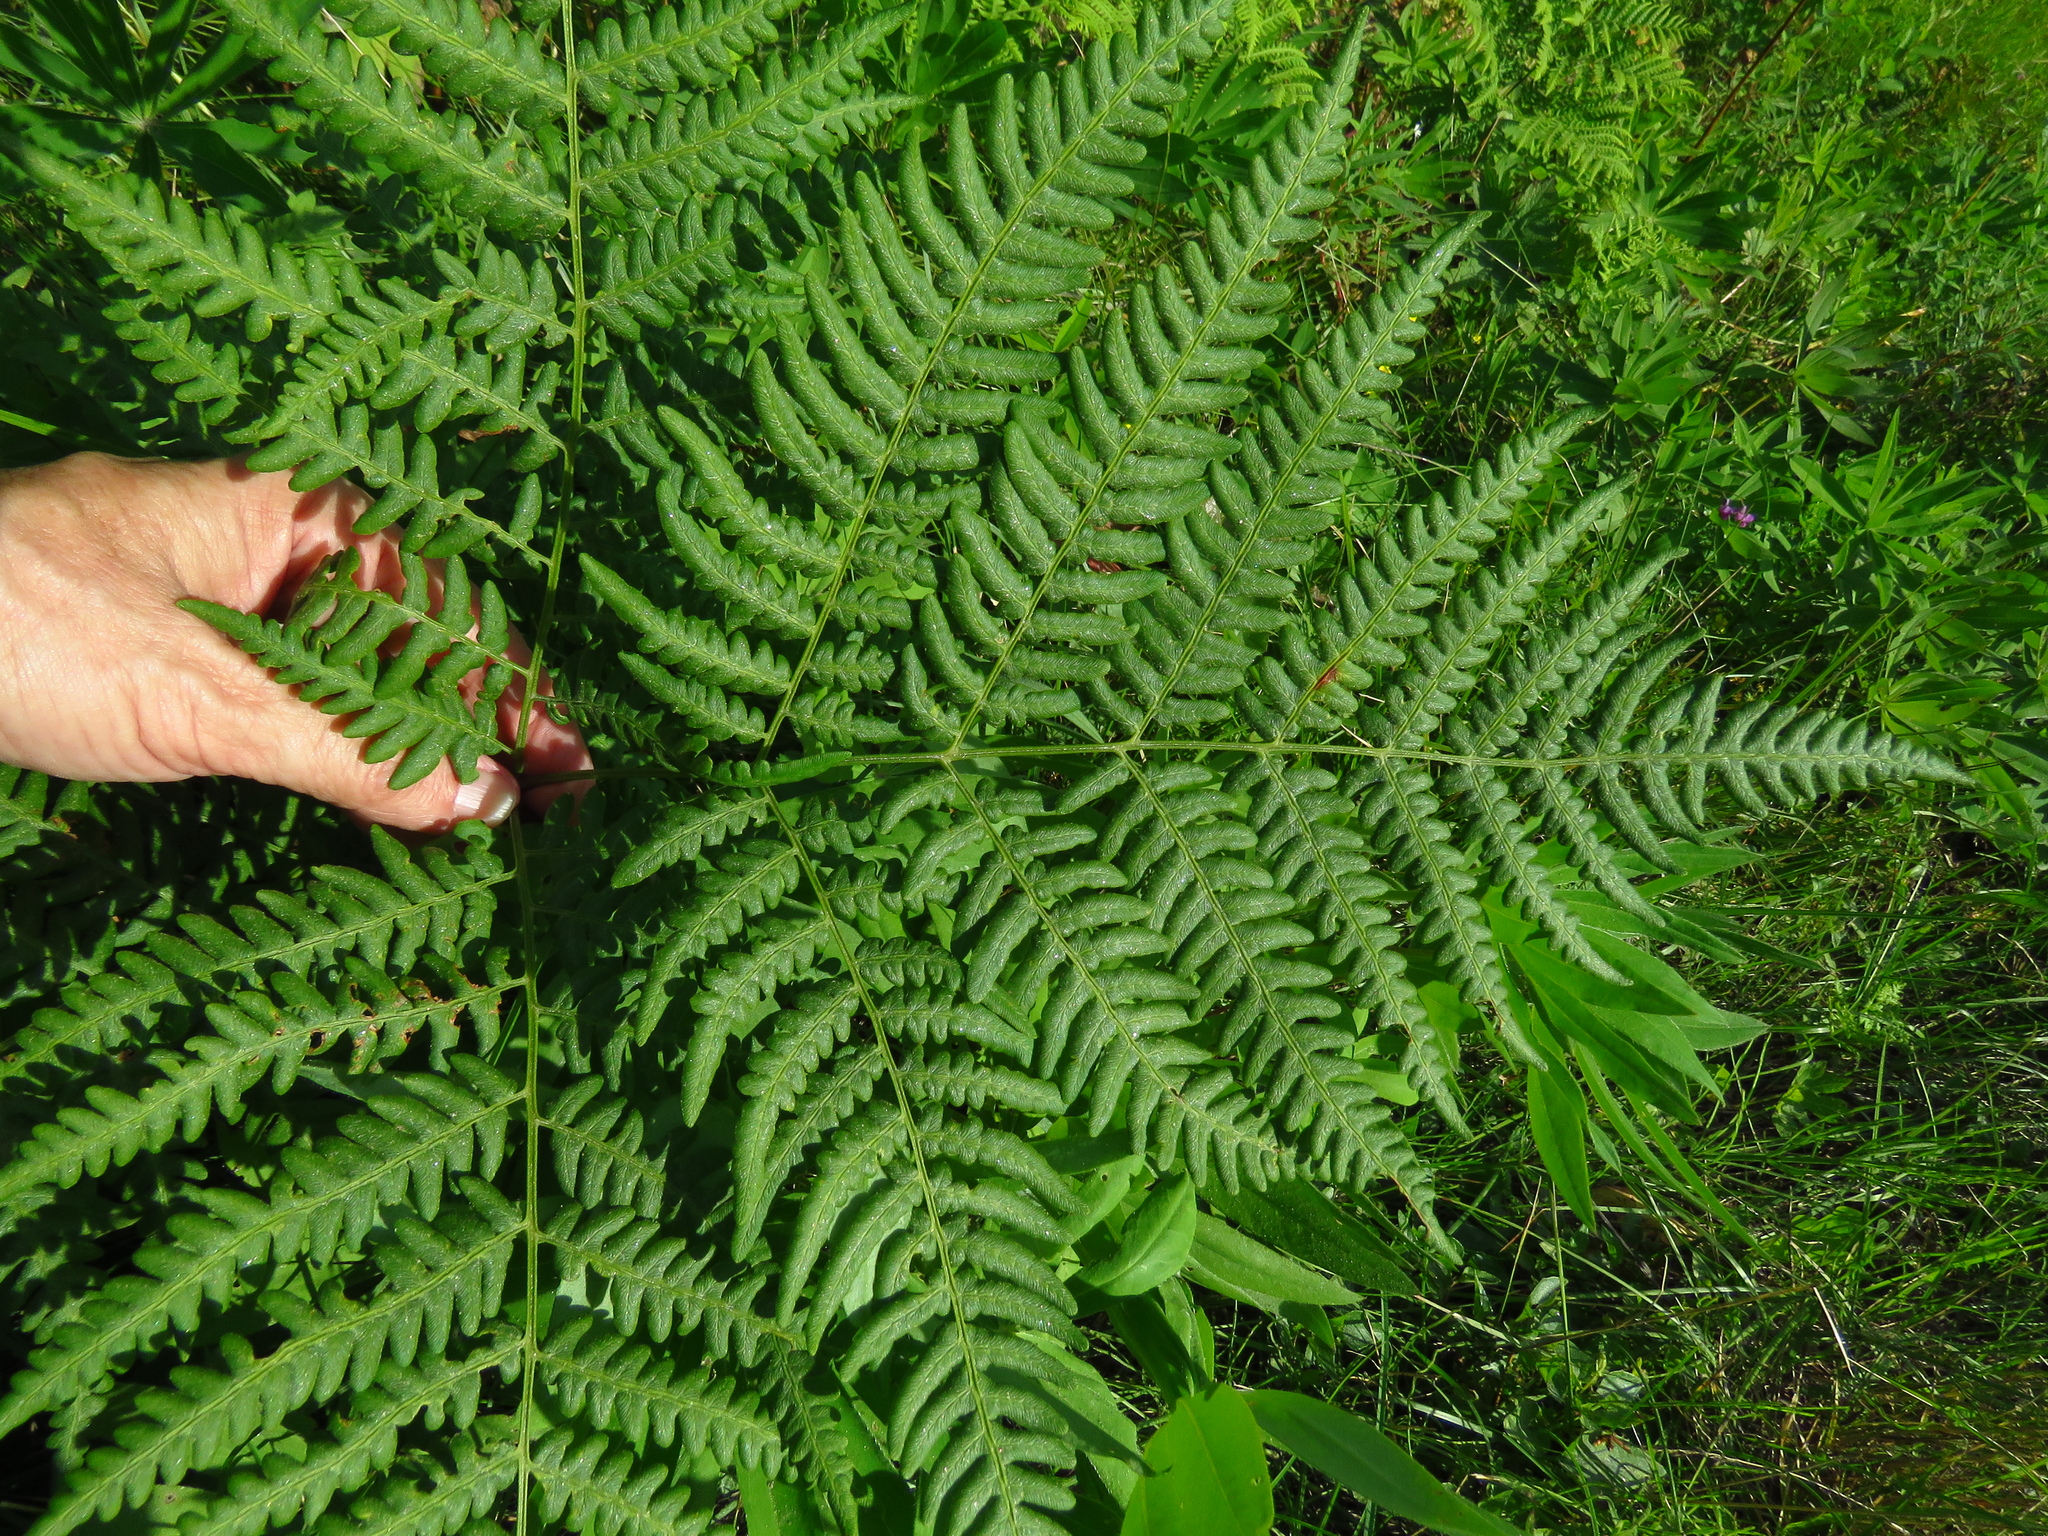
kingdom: Plantae
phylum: Tracheophyta
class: Polypodiopsida
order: Polypodiales
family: Dennstaedtiaceae
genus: Pteridium
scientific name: Pteridium aquilinum
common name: Bracken
